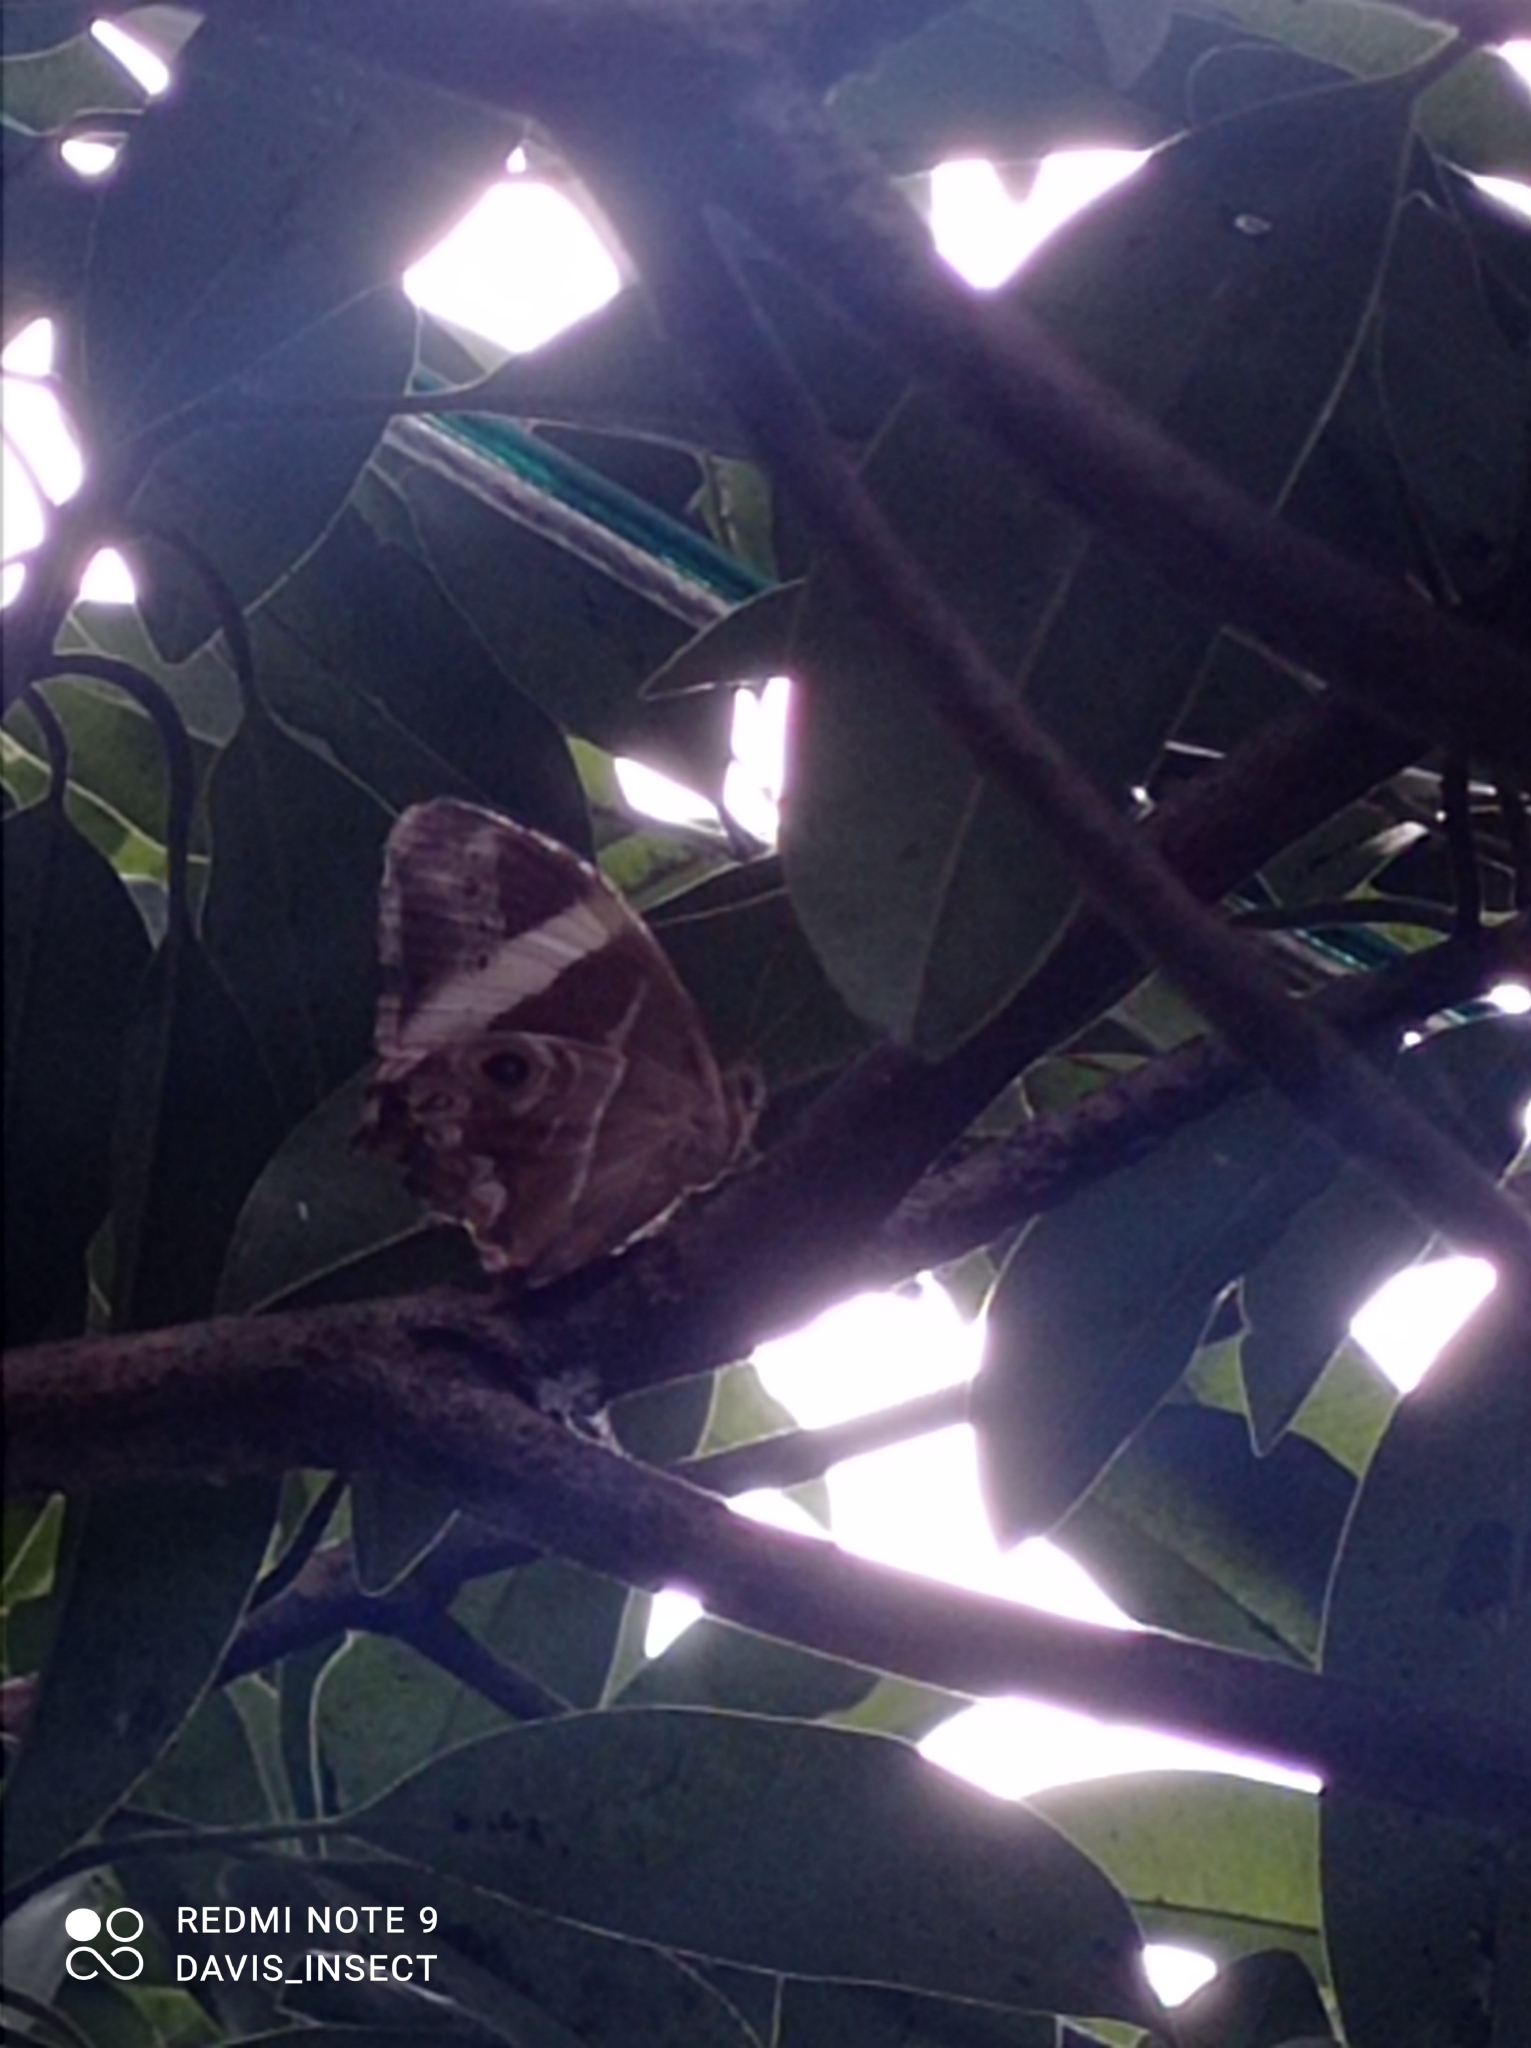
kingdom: Animalia
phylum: Arthropoda
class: Insecta
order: Lepidoptera
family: Nymphalidae
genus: Lethe
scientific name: Lethe europa
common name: Bamboo treebrown
